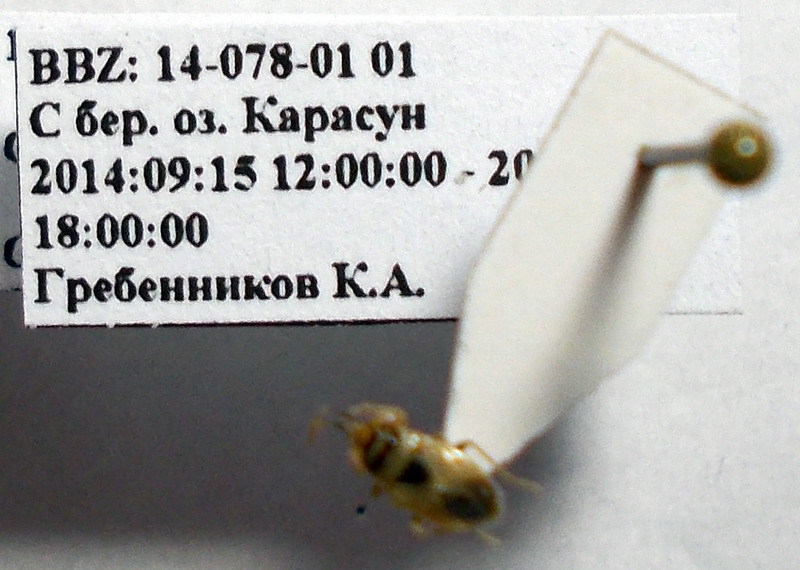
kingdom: Animalia
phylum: Arthropoda
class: Insecta
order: Hemiptera
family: Geocoridae
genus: Geocoris
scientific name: Geocoris arenarius
